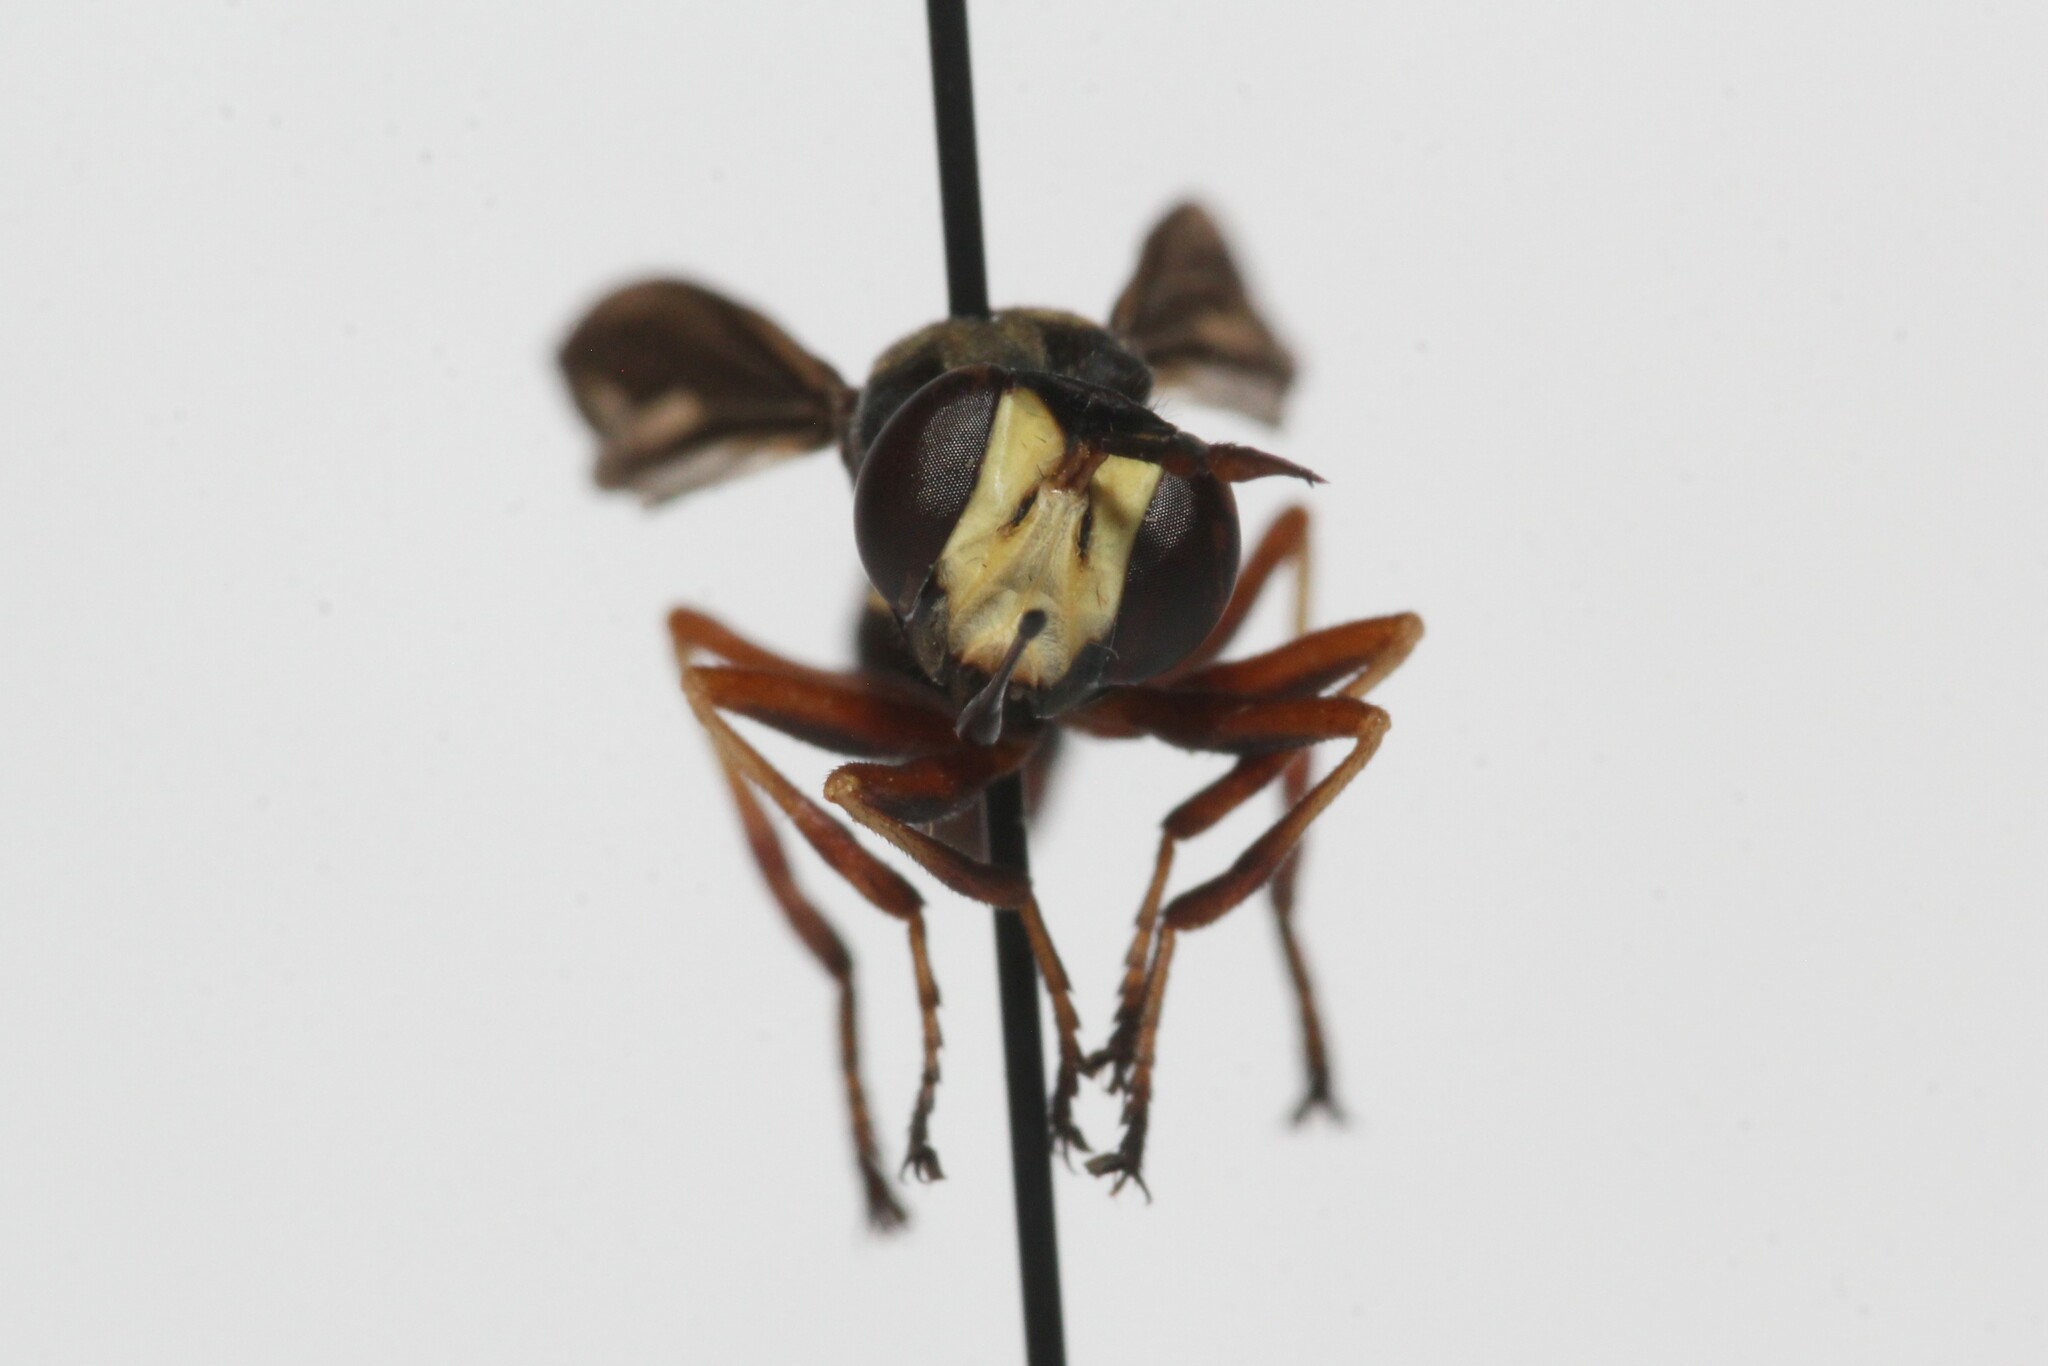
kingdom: Animalia
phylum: Arthropoda
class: Insecta
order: Diptera
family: Conopidae
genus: Physocephala
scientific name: Physocephala furcillata
